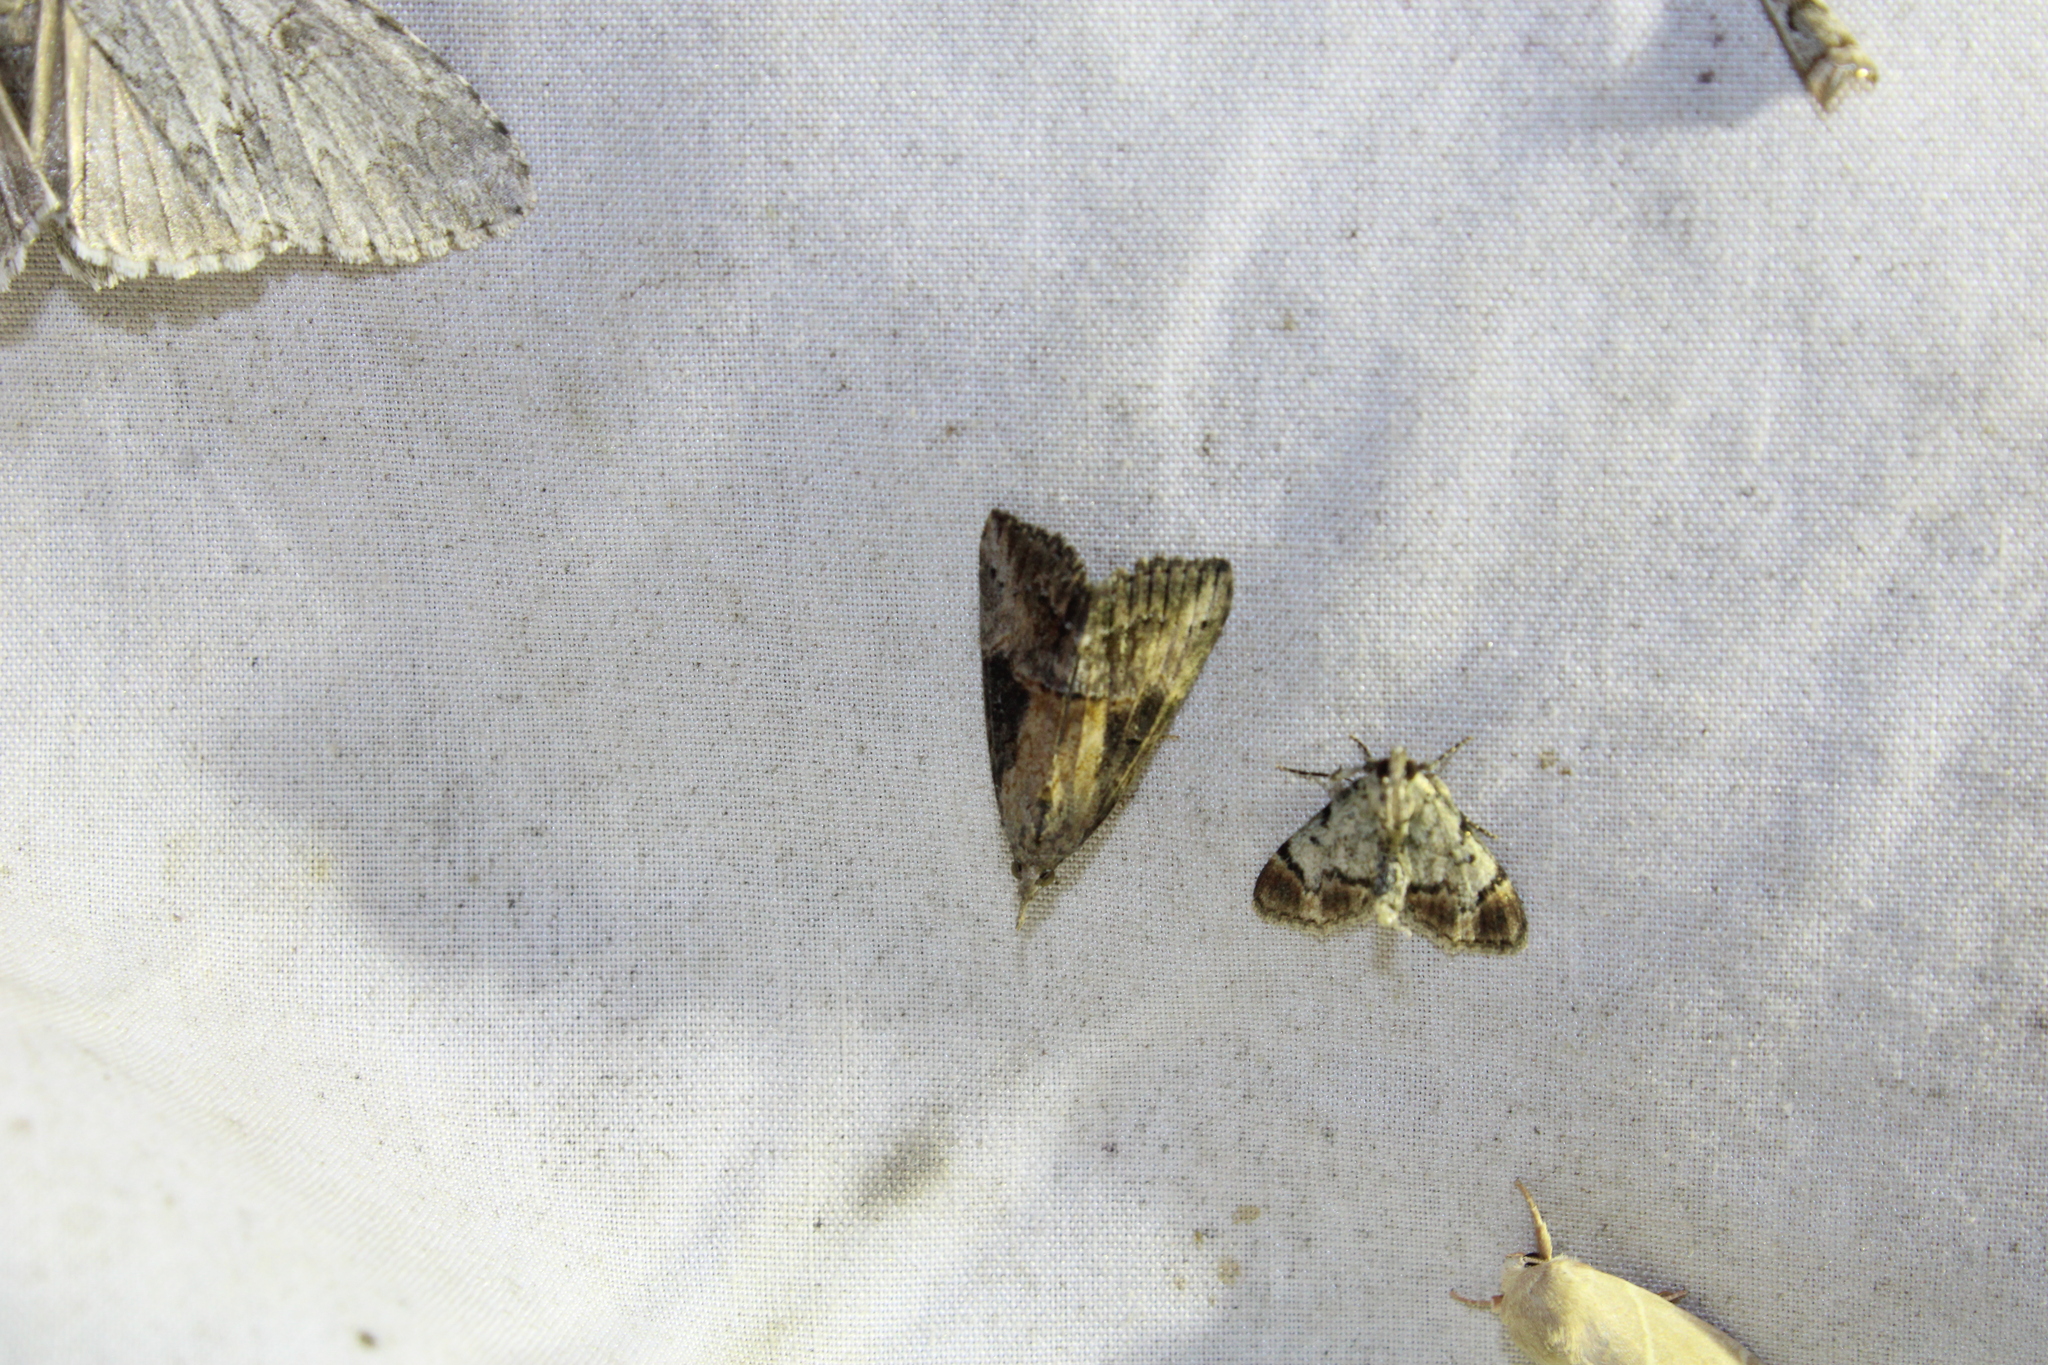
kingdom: Animalia
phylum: Arthropoda
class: Insecta
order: Lepidoptera
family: Erebidae
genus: Hypena
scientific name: Hypena scabra
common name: Green cloverworm
